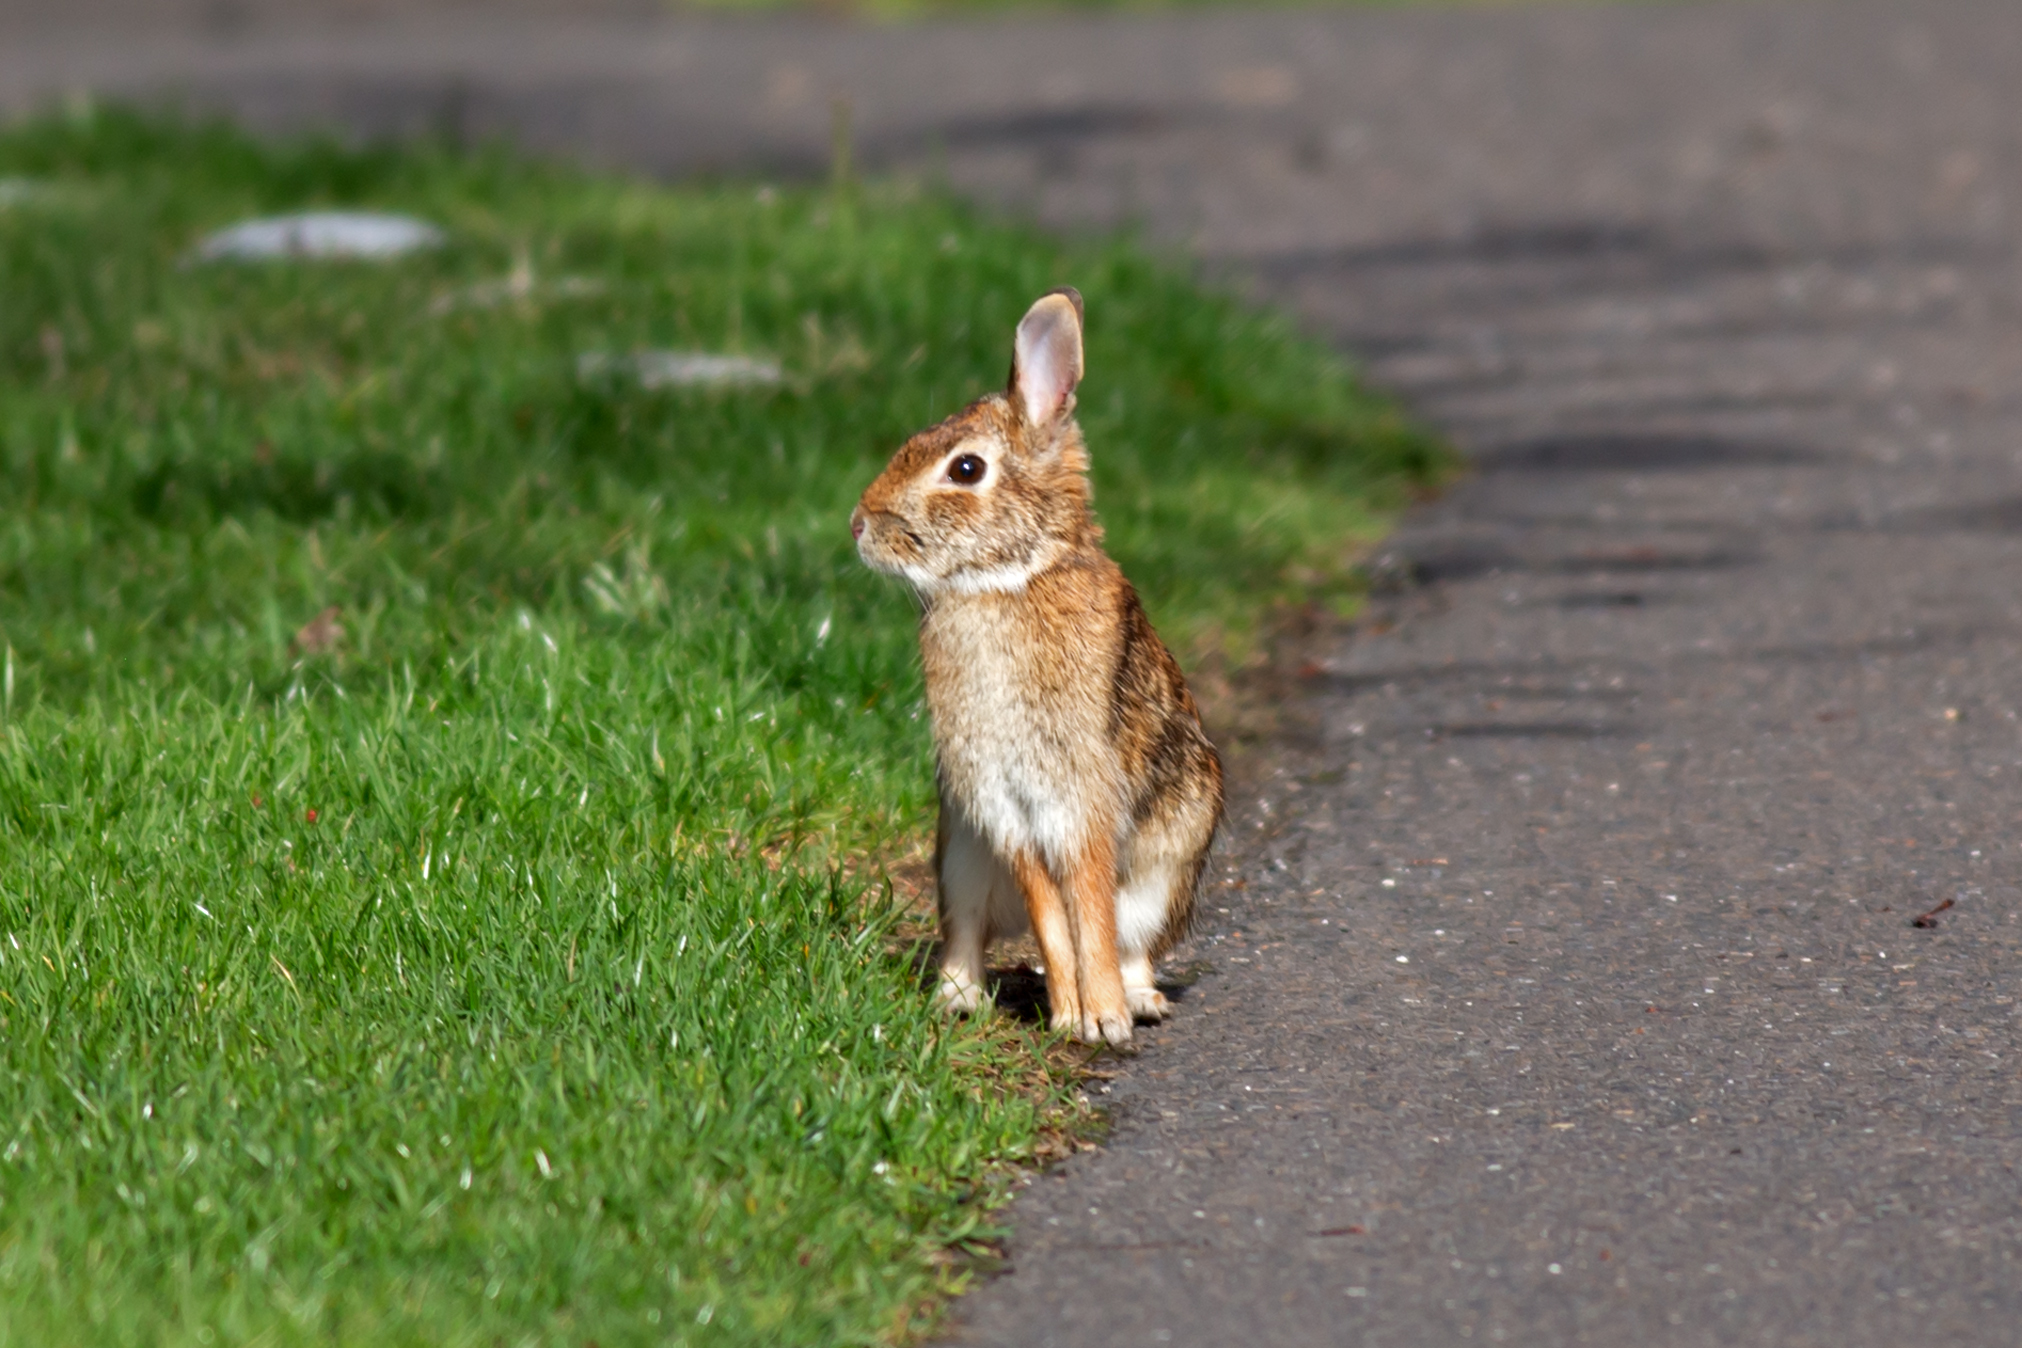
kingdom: Animalia
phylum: Chordata
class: Mammalia
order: Lagomorpha
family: Leporidae
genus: Sylvilagus
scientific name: Sylvilagus floridanus
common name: Eastern cottontail
